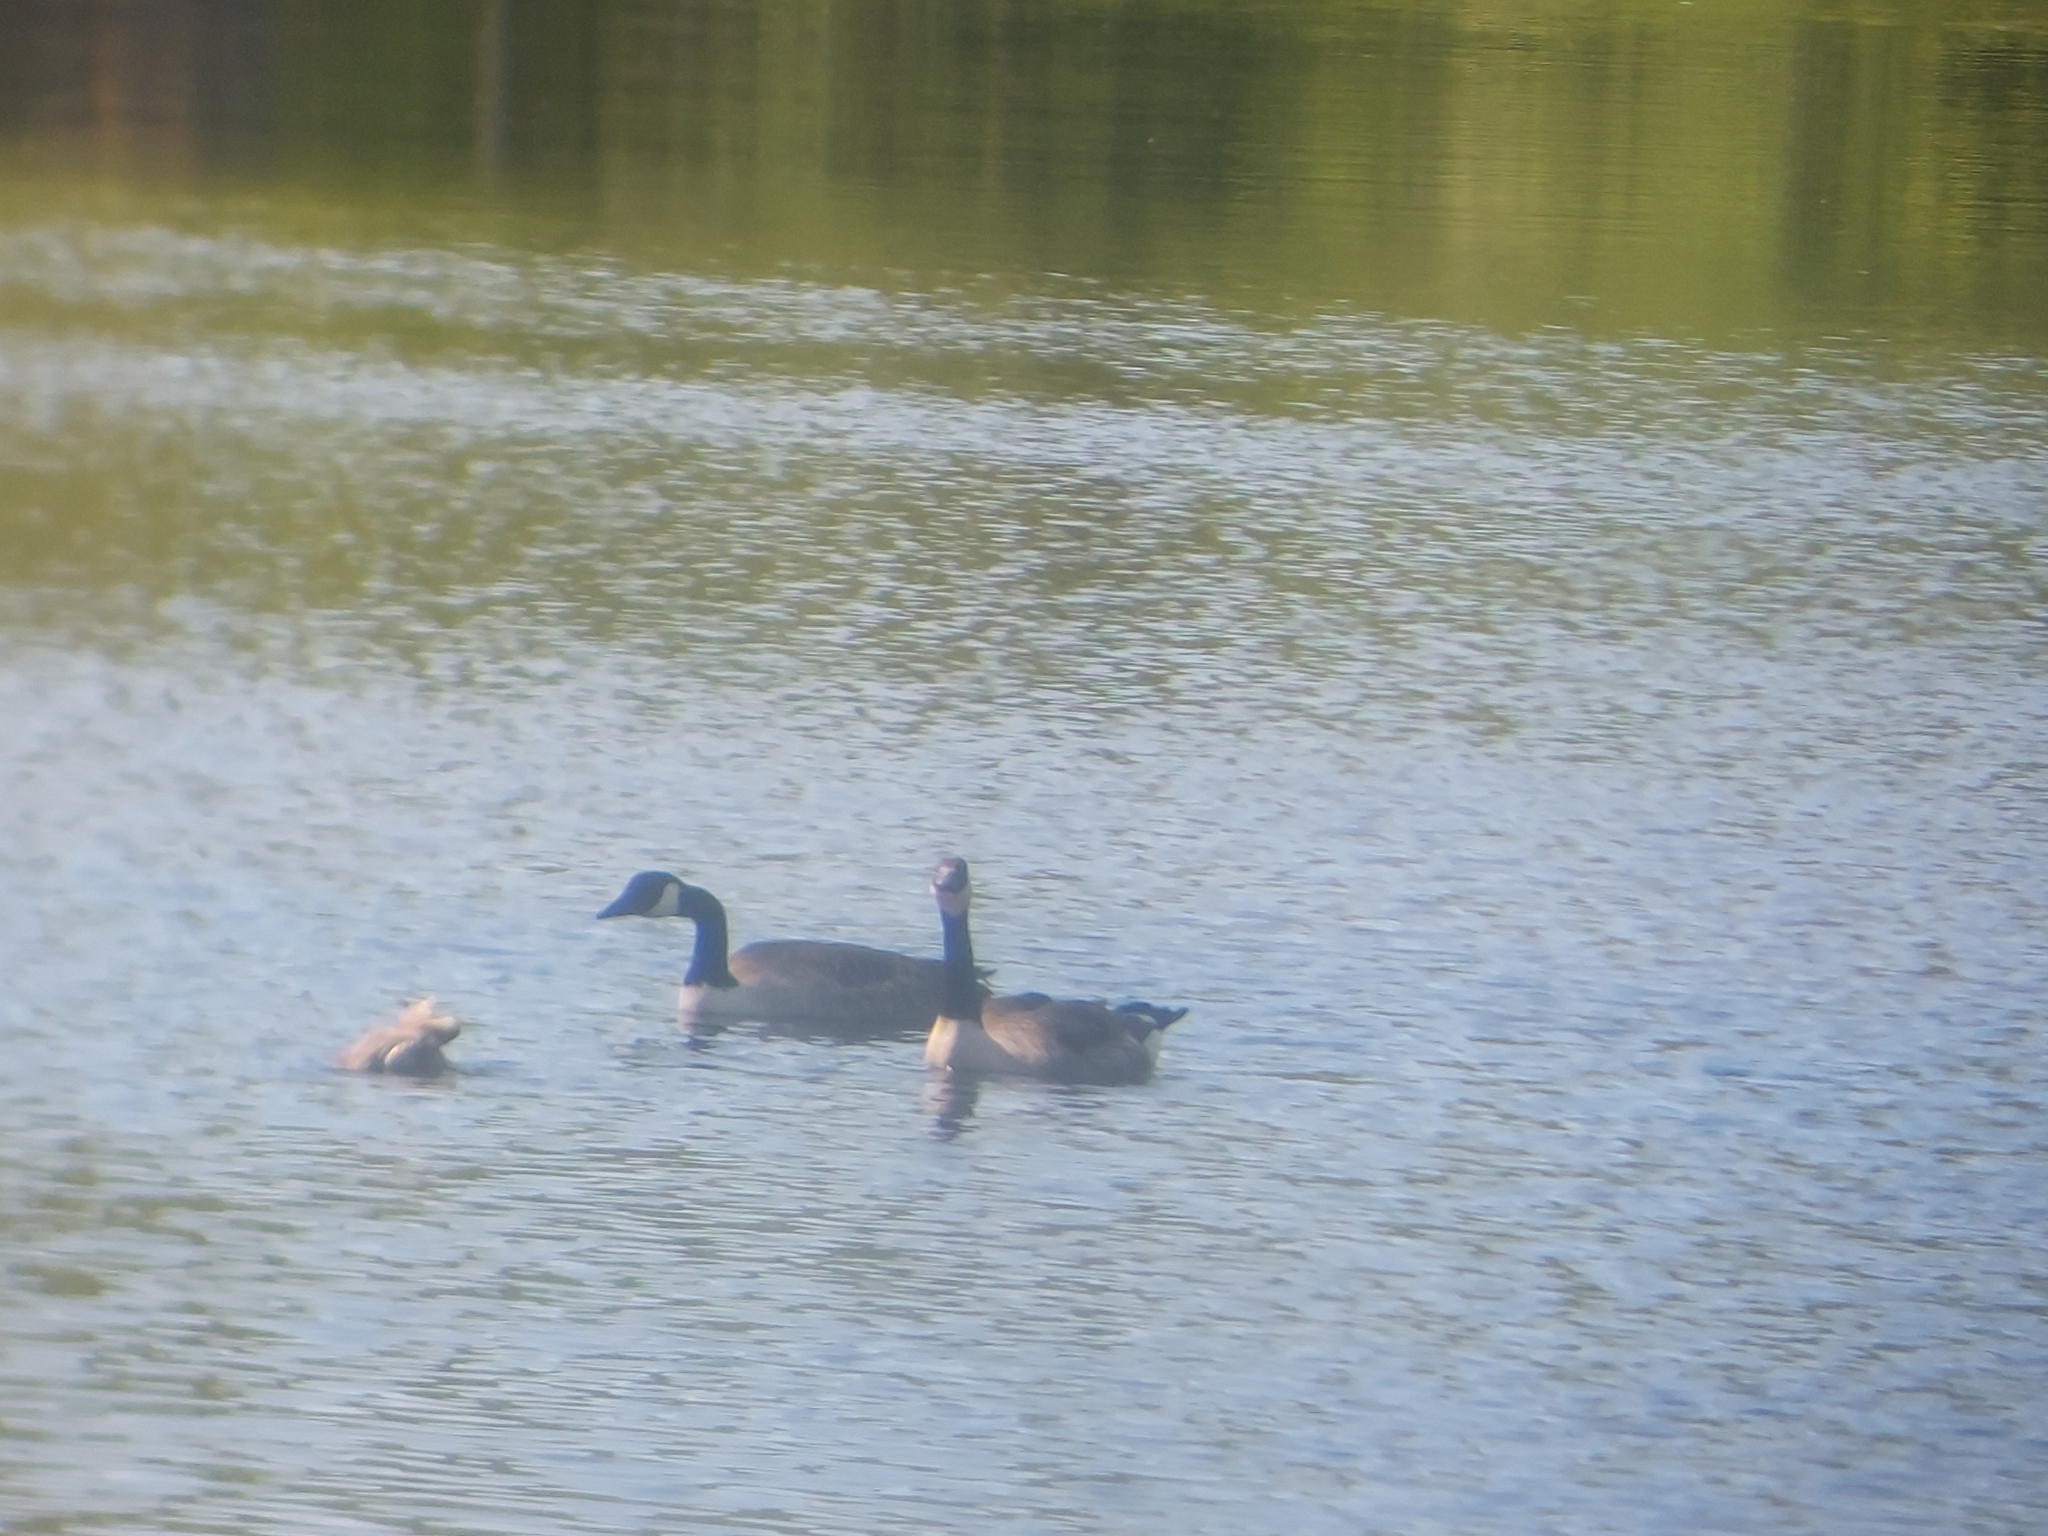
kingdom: Animalia
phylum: Chordata
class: Aves
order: Anseriformes
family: Anatidae
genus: Branta
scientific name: Branta canadensis
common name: Canada goose
